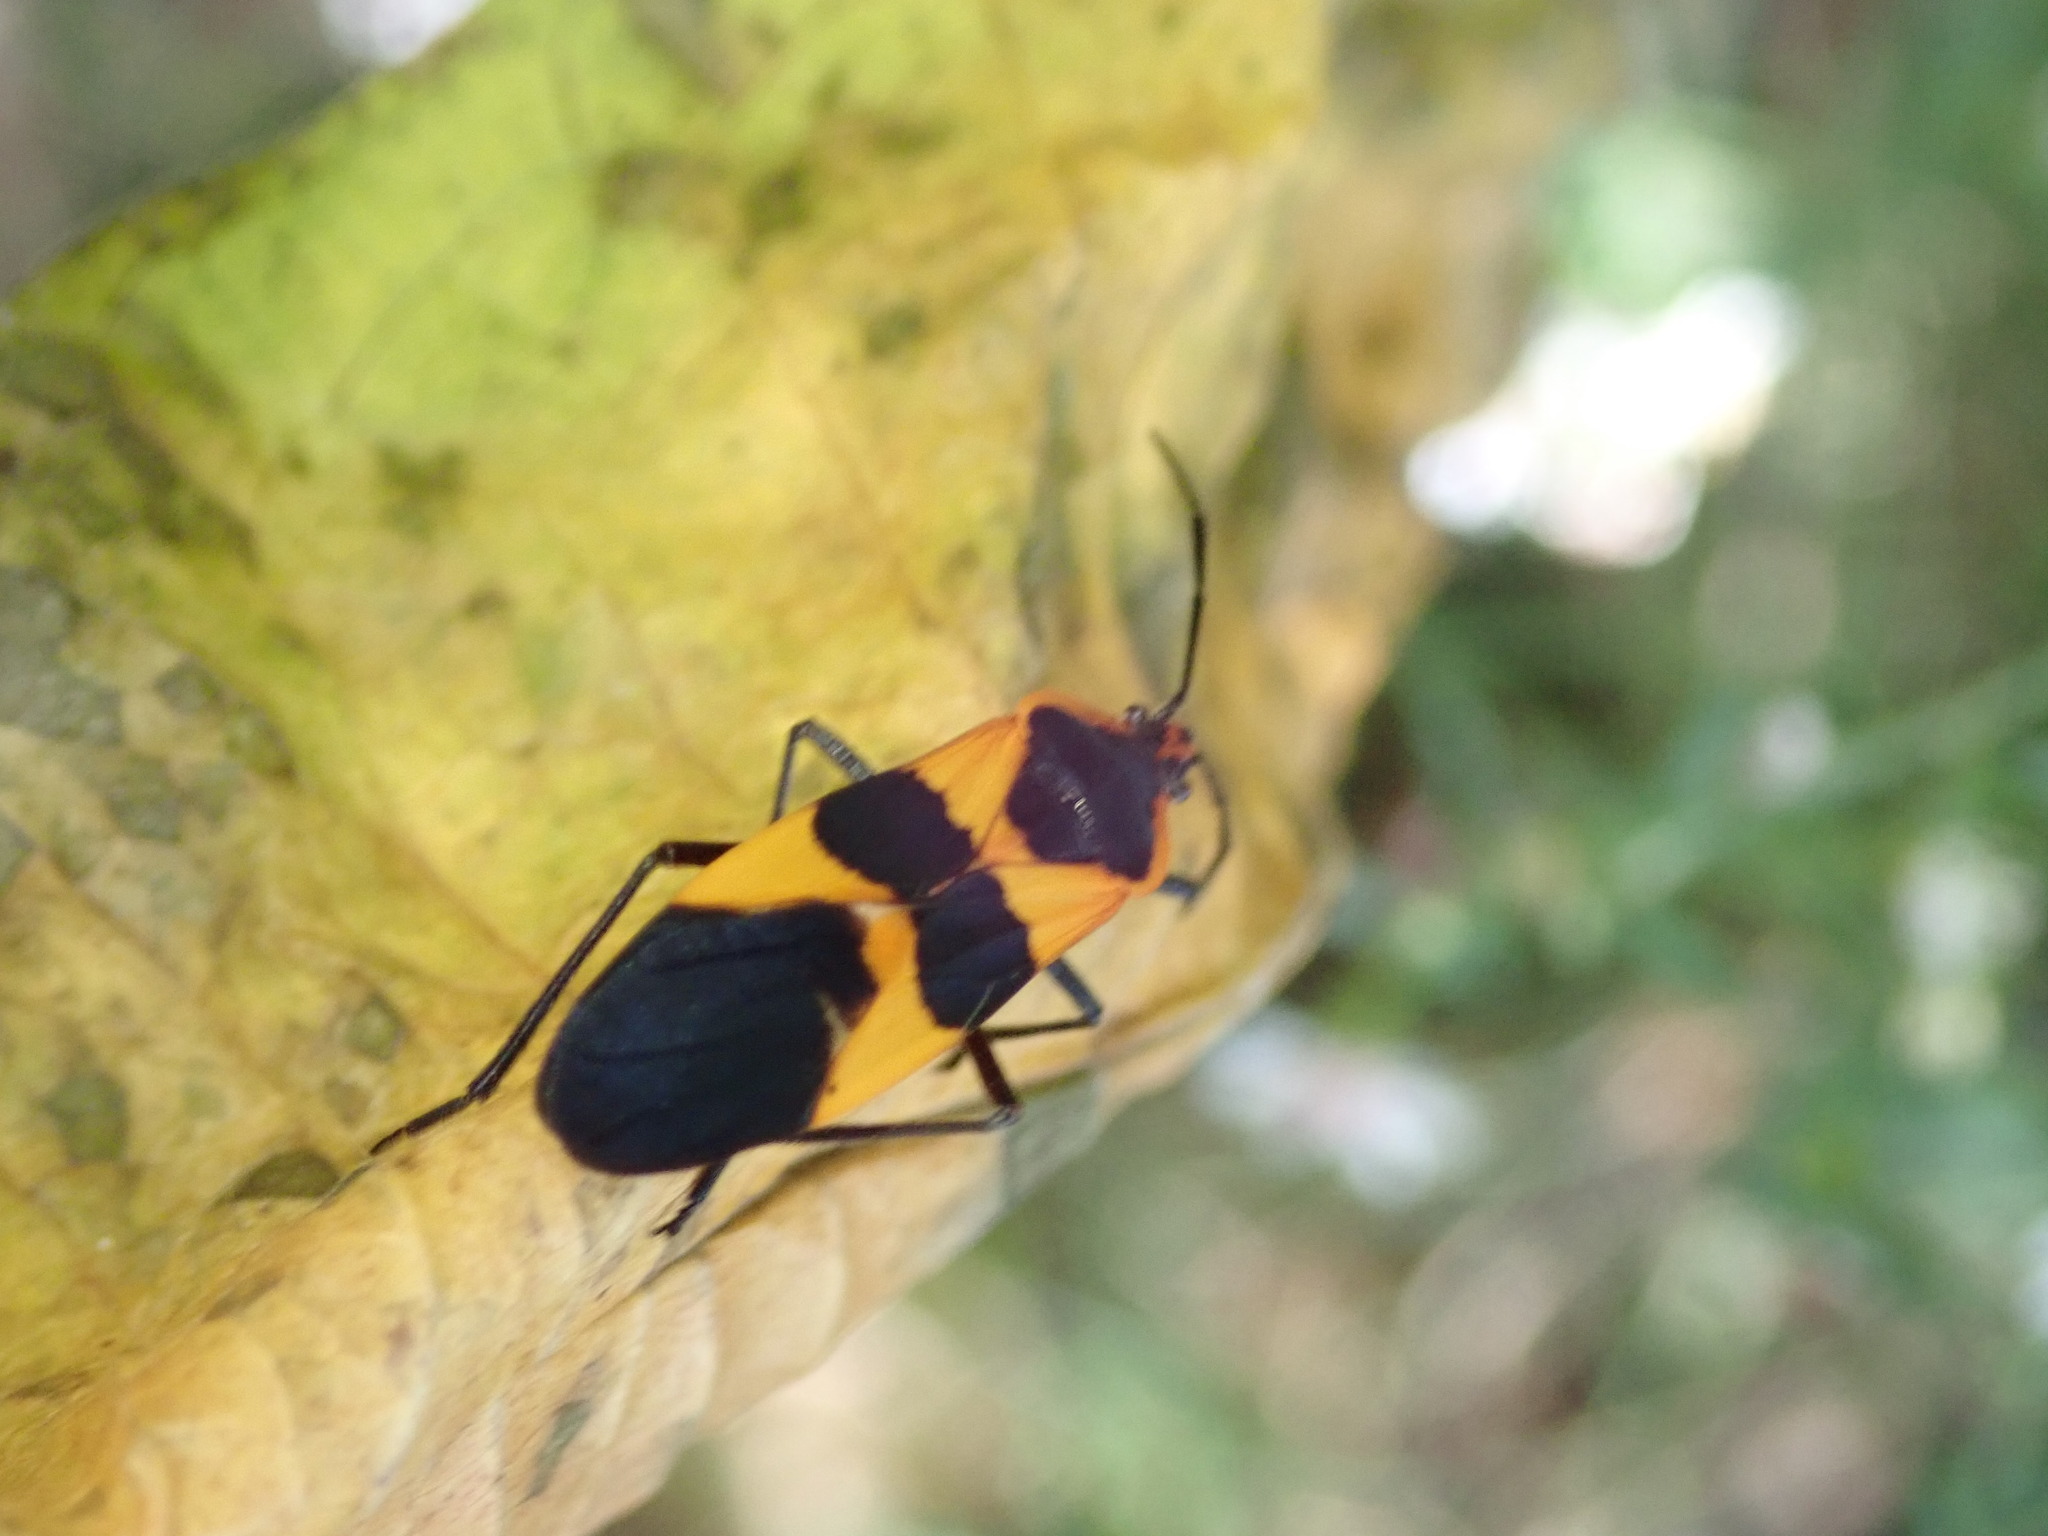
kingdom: Animalia
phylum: Arthropoda
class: Insecta
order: Hemiptera
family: Lygaeidae
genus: Oncopeltus
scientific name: Oncopeltus fasciatus
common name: Large milkweed bug
